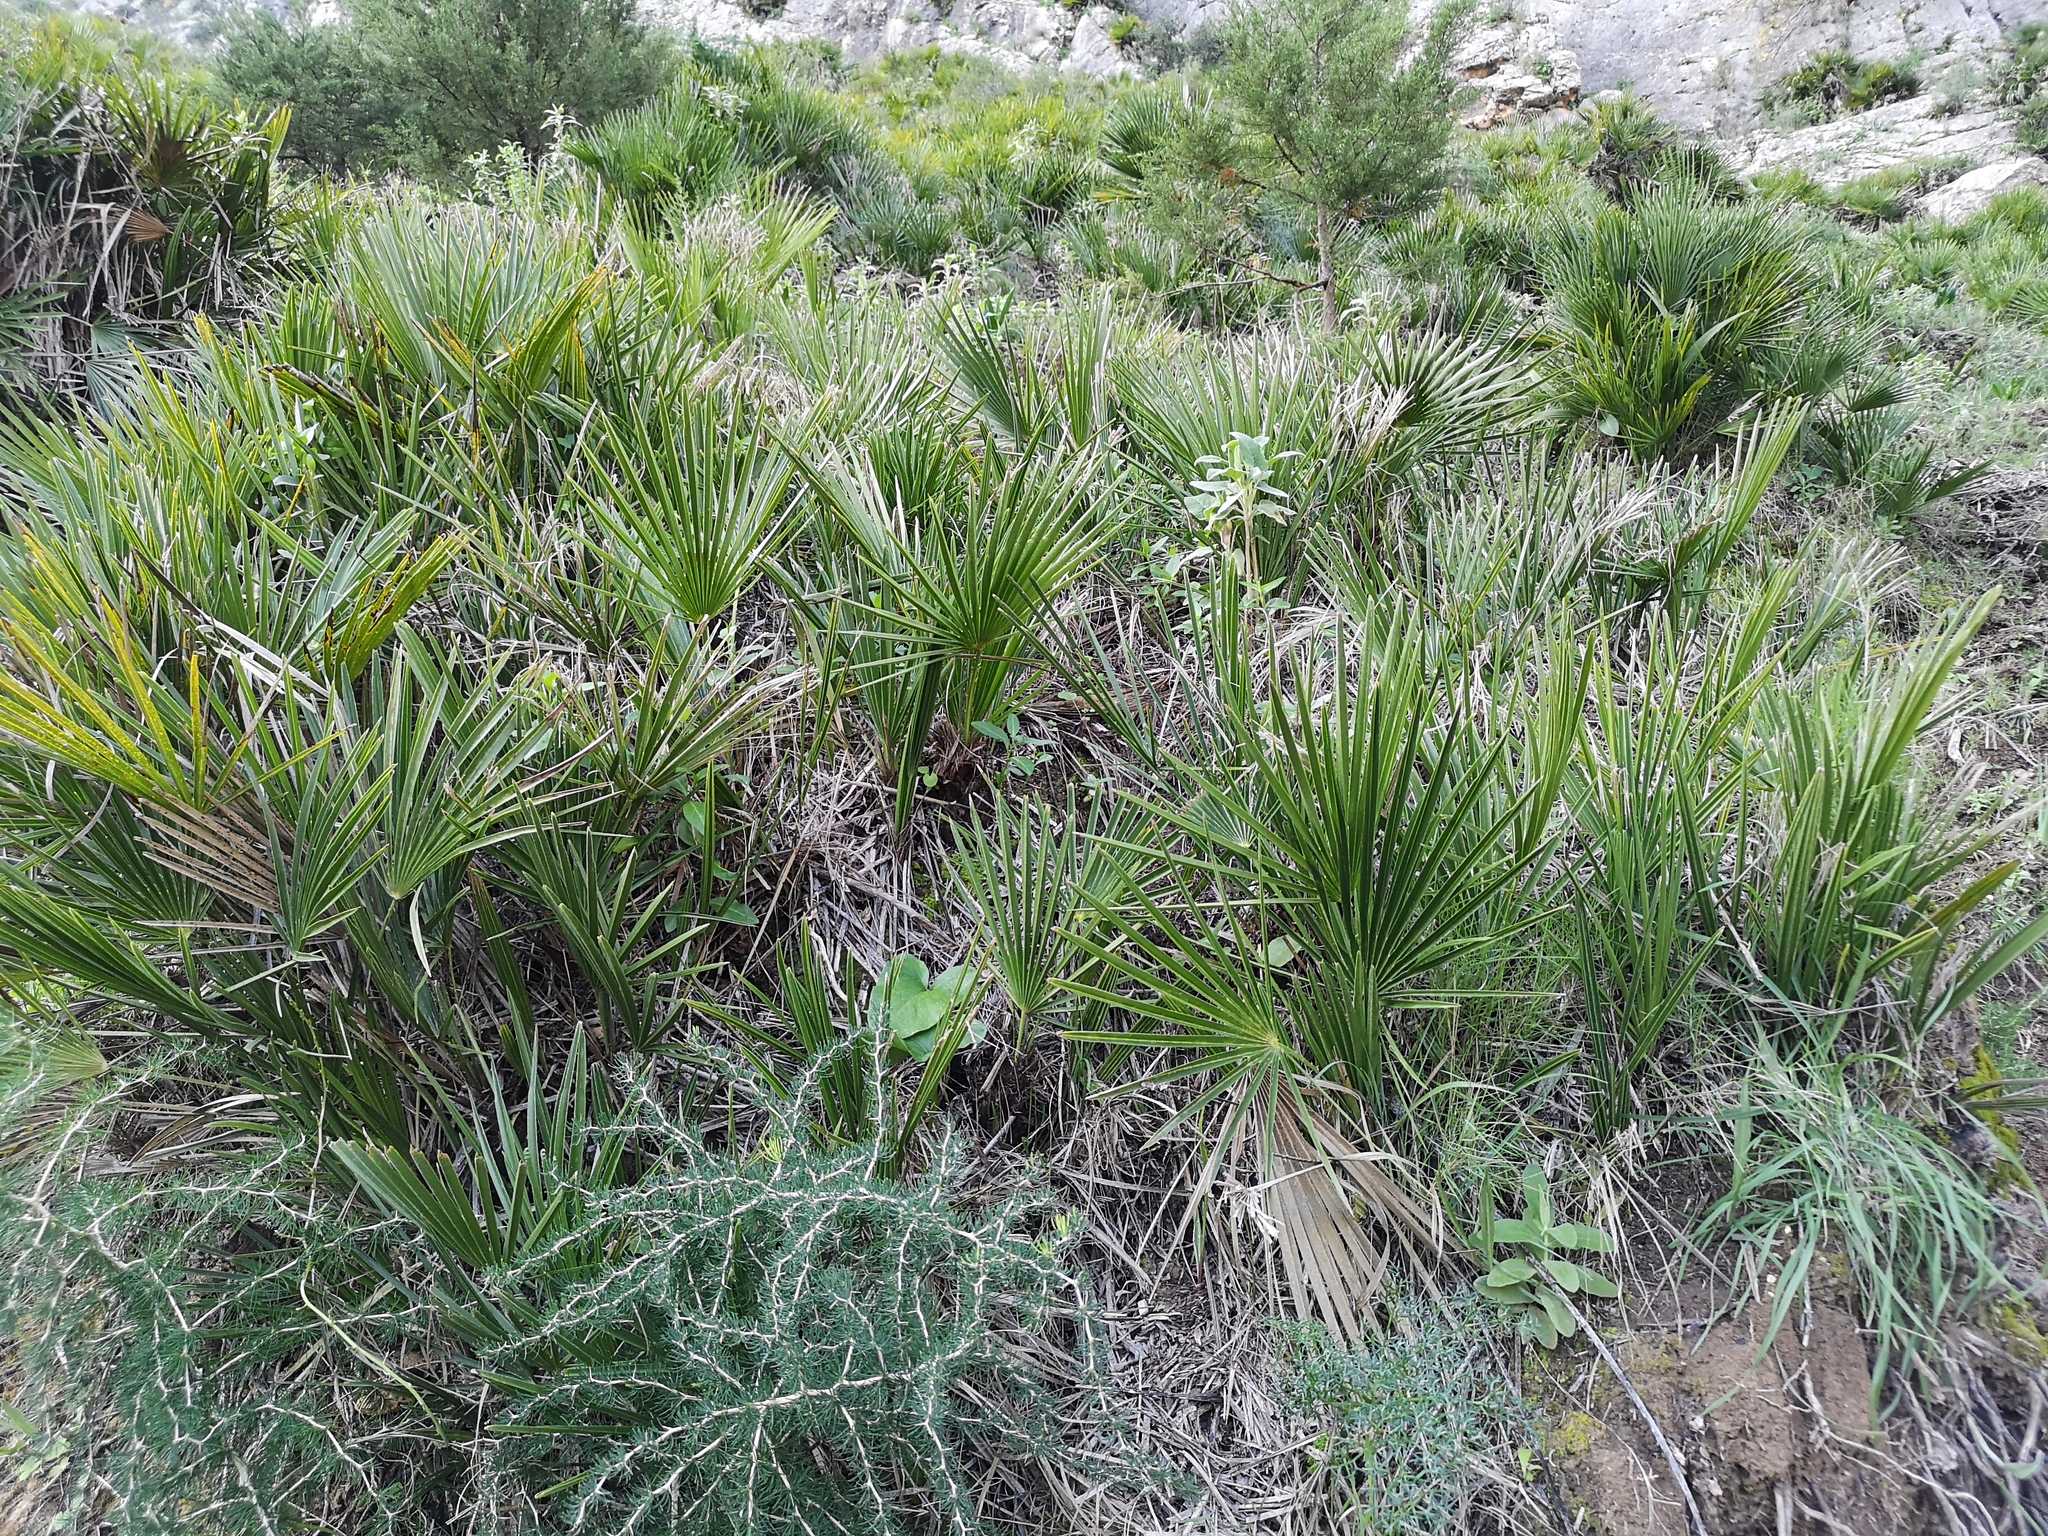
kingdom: Plantae
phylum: Tracheophyta
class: Liliopsida
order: Arecales
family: Arecaceae
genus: Chamaerops
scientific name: Chamaerops humilis
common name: Dwarf fan palm
